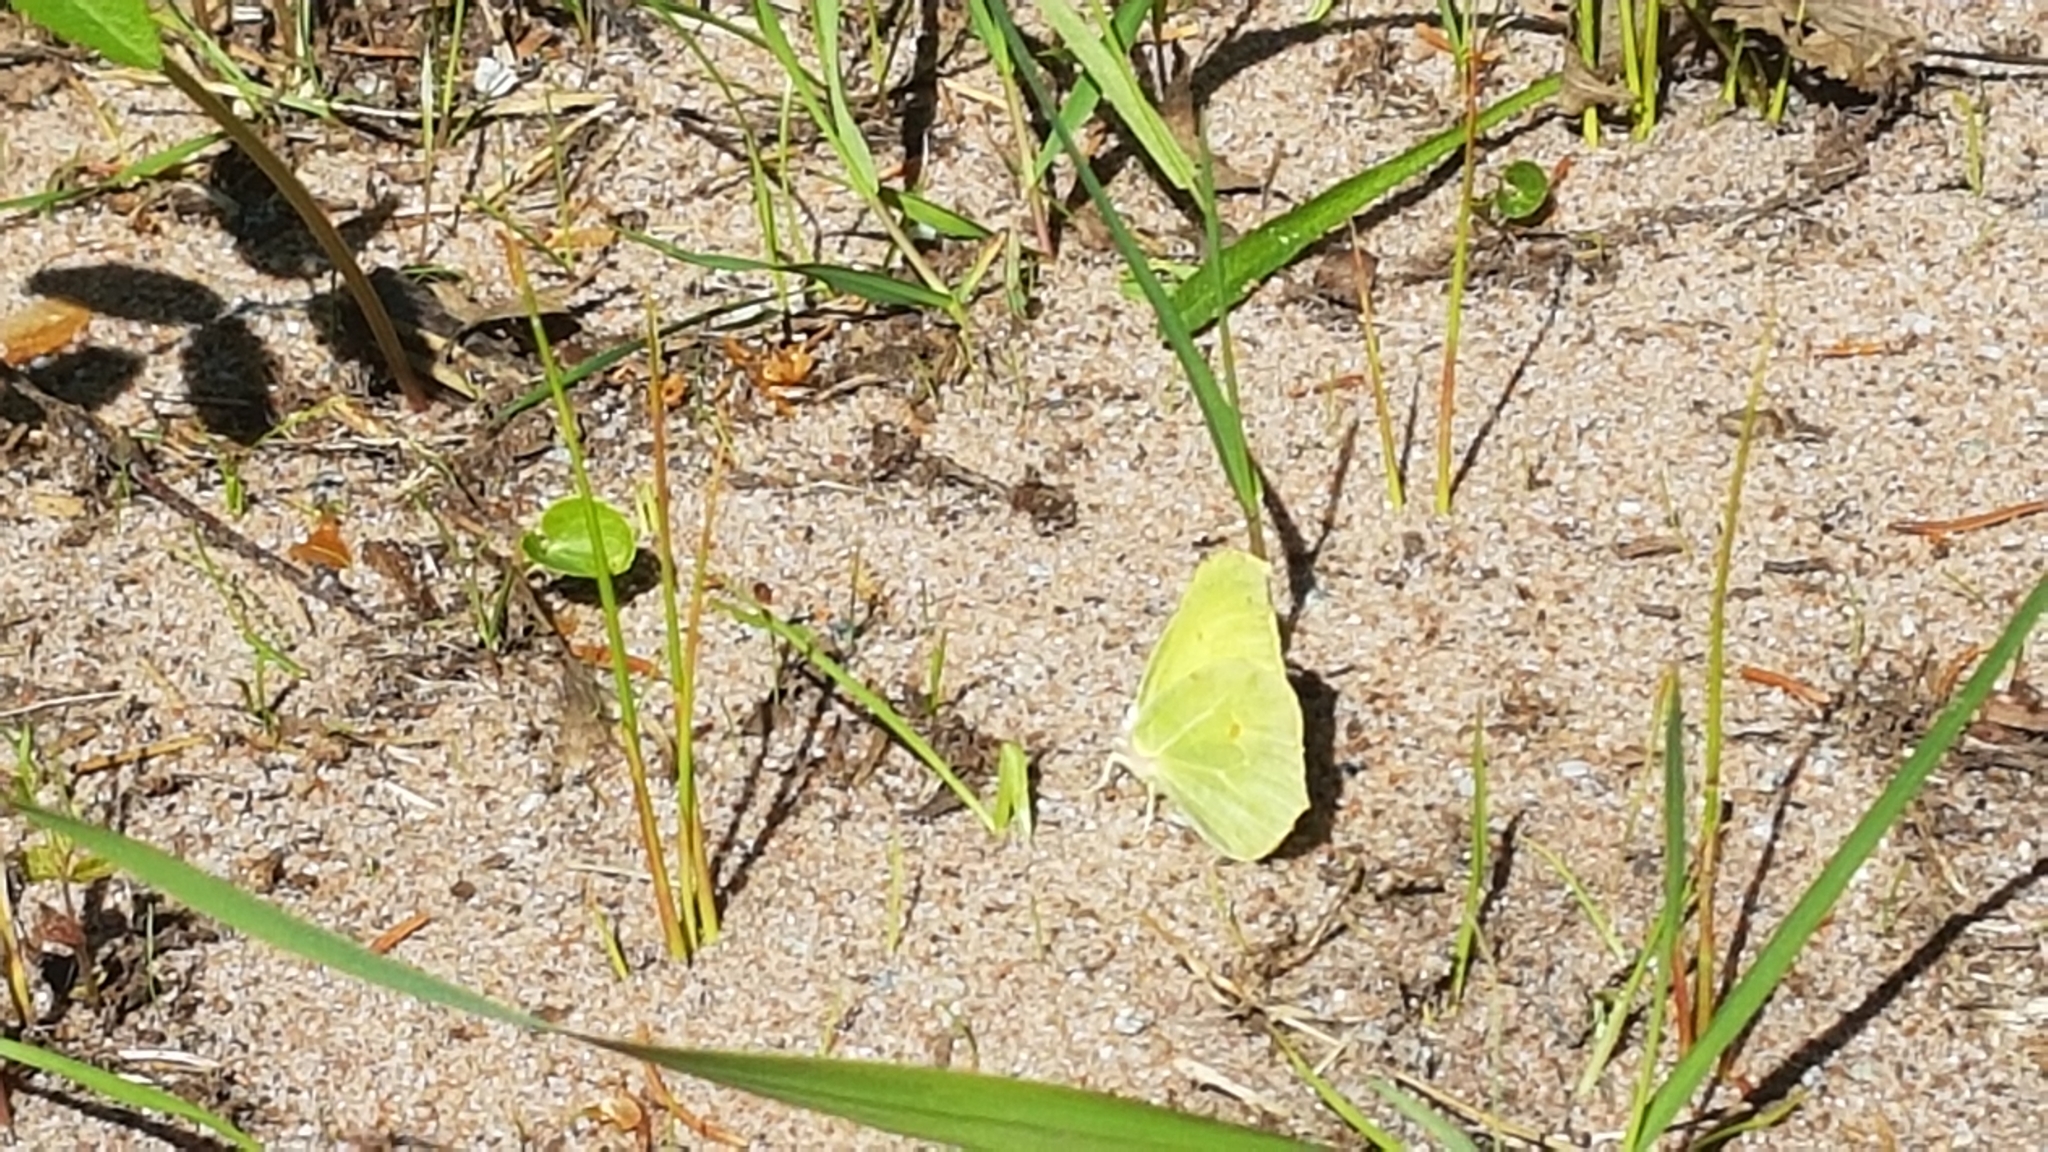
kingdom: Animalia
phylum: Arthropoda
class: Insecta
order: Lepidoptera
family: Pieridae
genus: Gonepteryx
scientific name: Gonepteryx rhamni
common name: Brimstone
